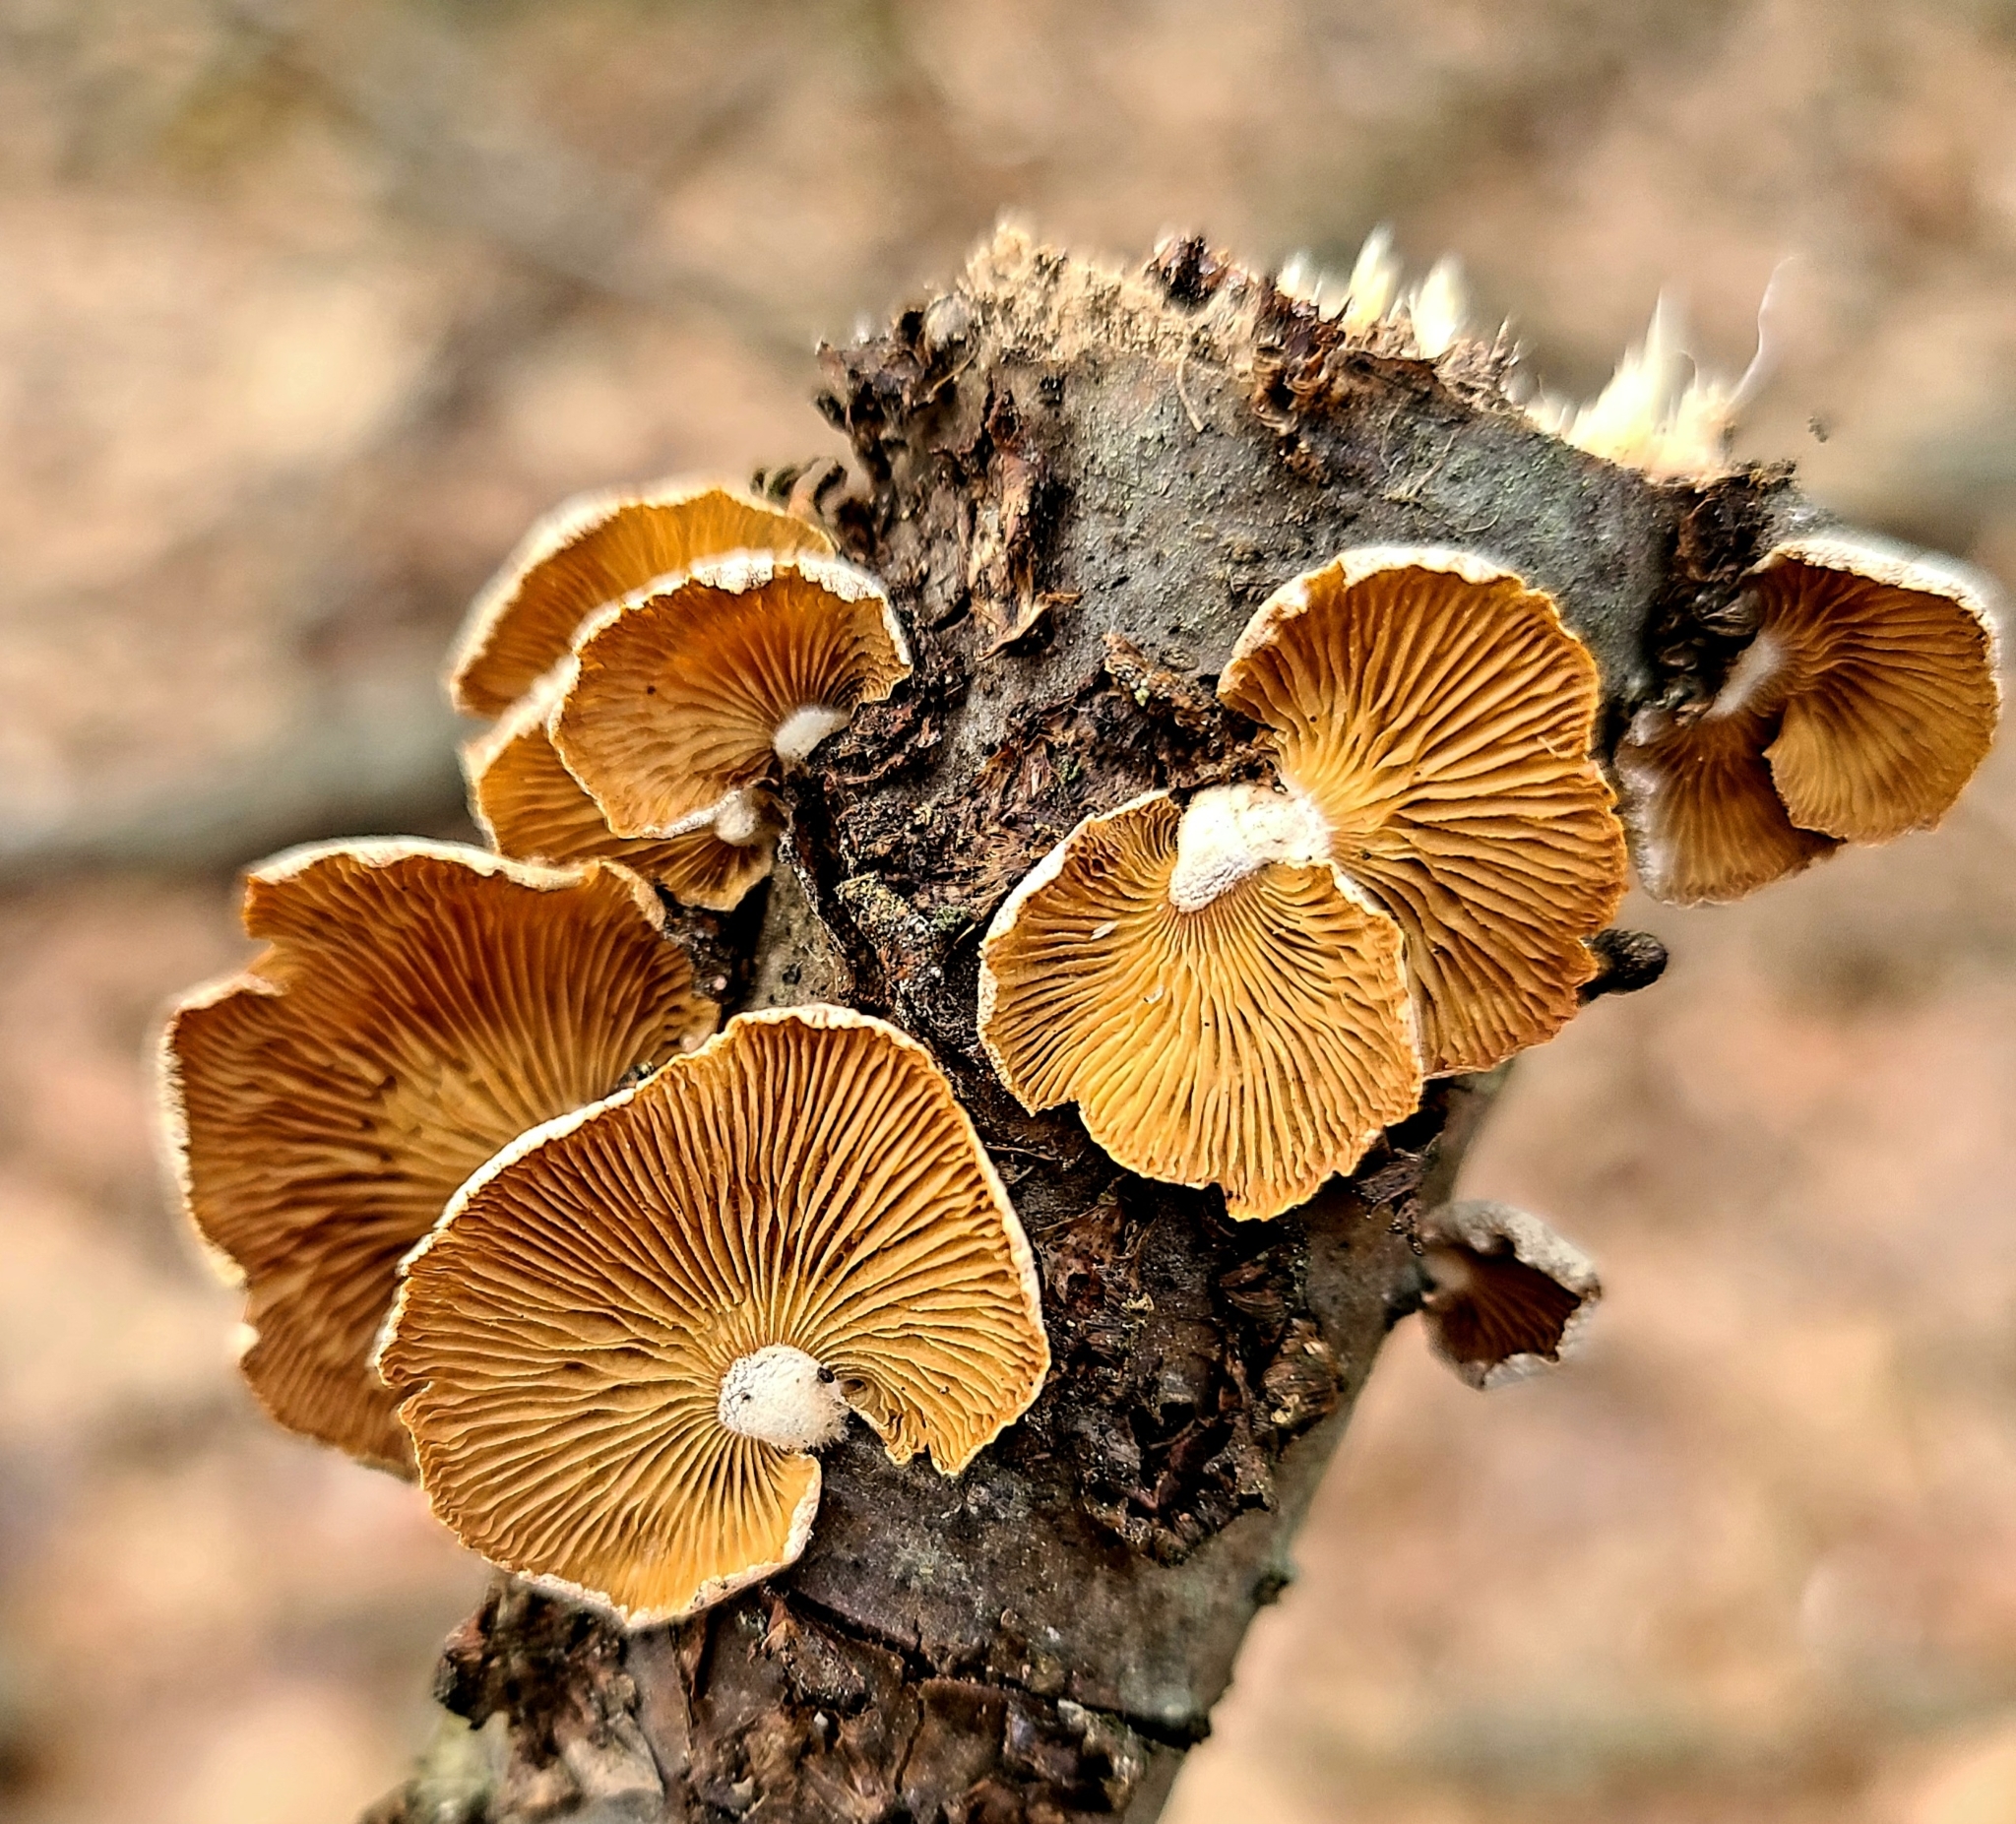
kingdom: Fungi
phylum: Basidiomycota
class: Agaricomycetes
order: Agaricales
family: Mycenaceae
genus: Panellus
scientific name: Panellus stipticus
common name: Bitter oysterling
